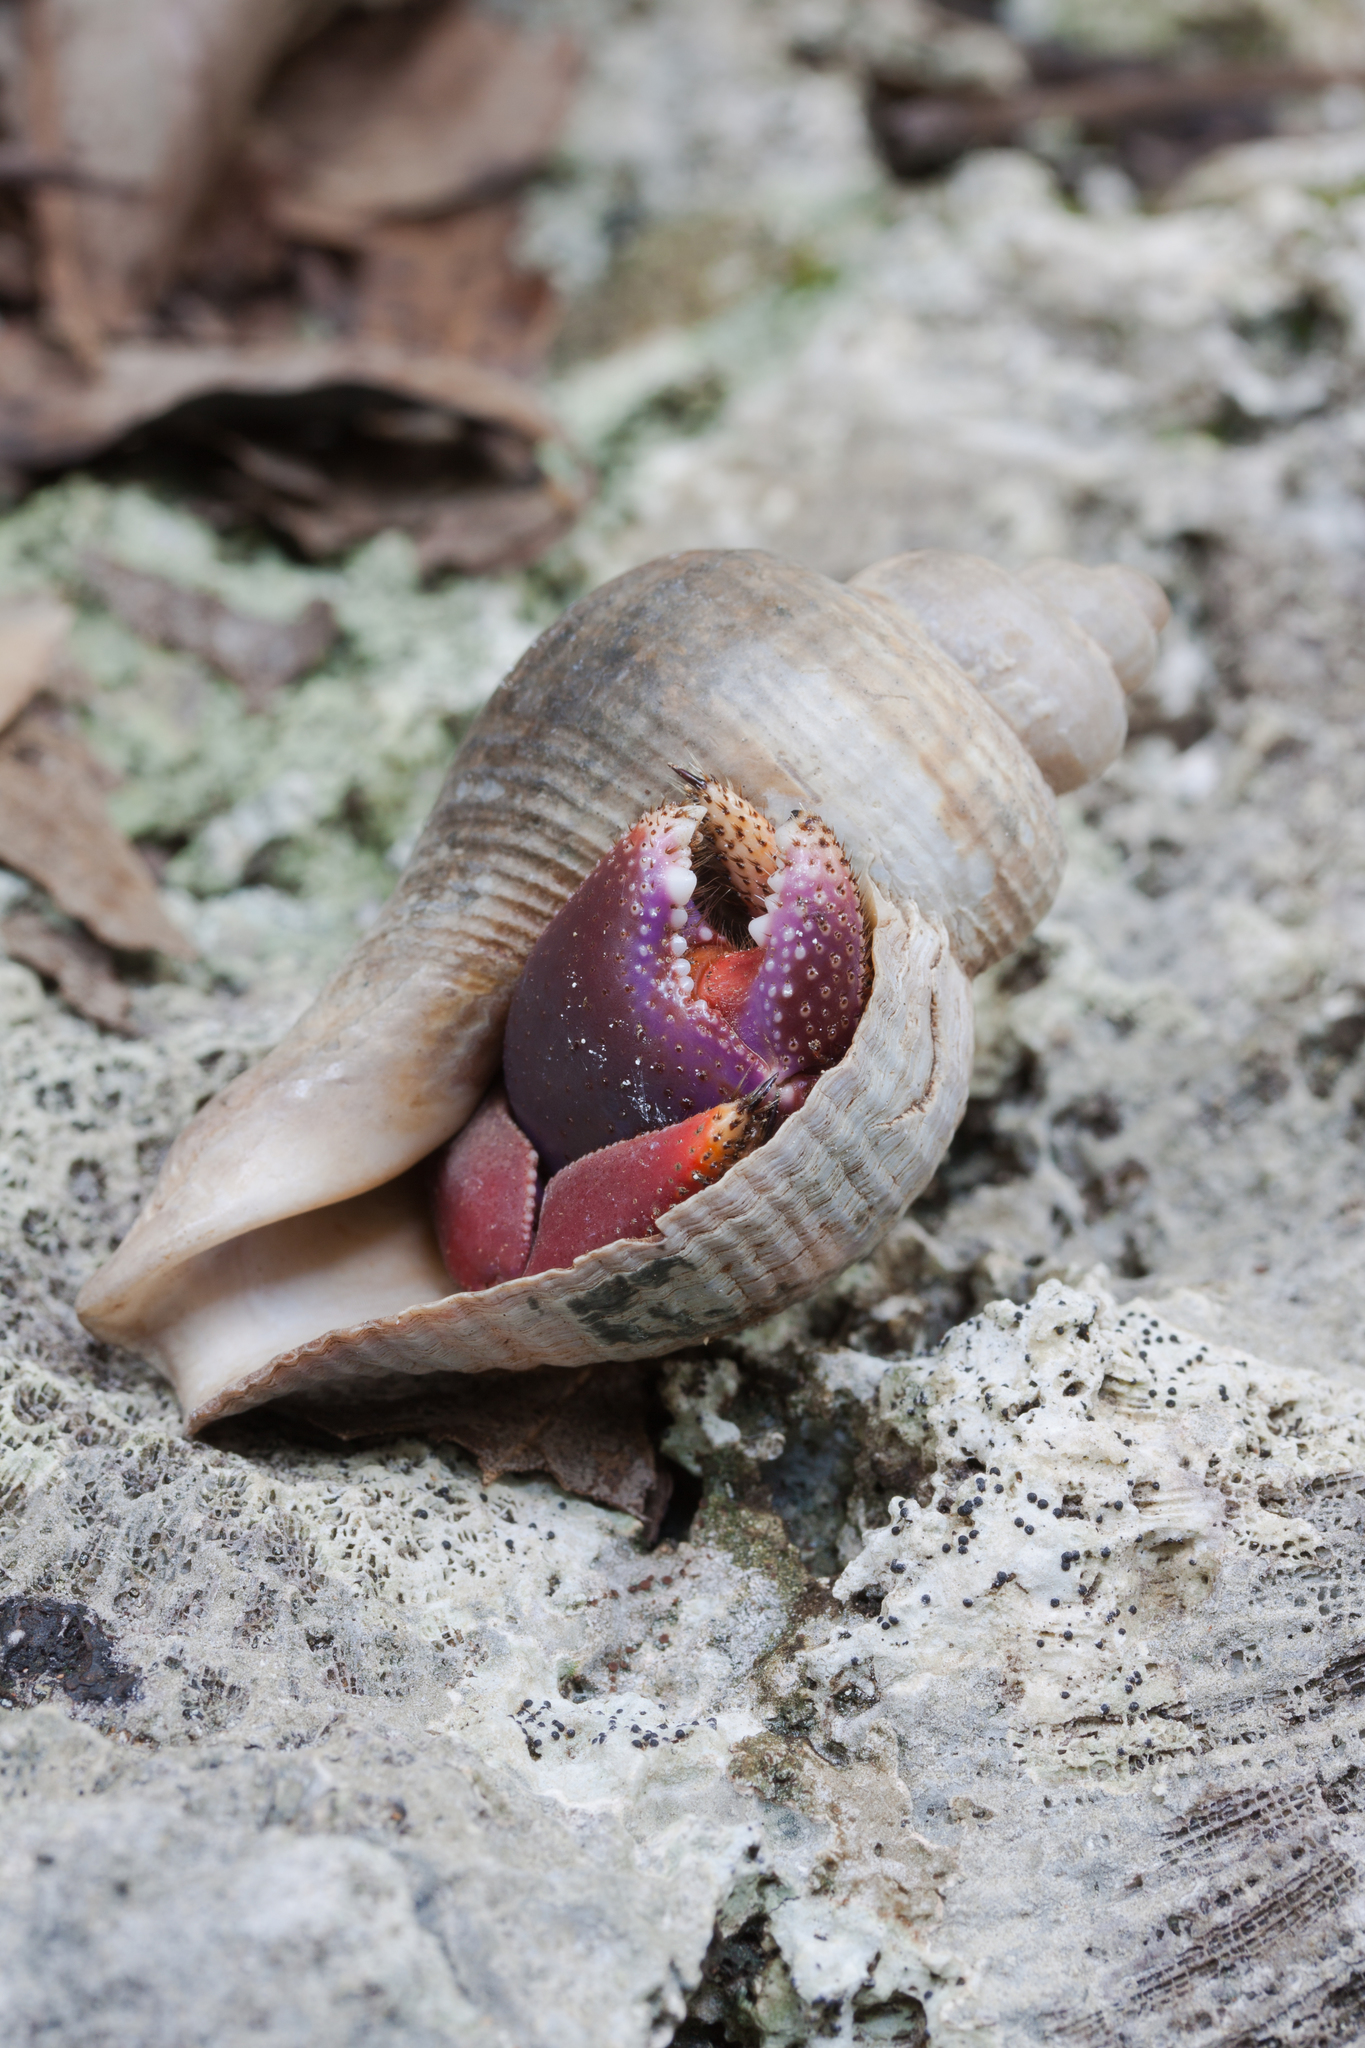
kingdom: Animalia
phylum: Arthropoda
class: Malacostraca
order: Decapoda
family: Coenobitidae
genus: Coenobita
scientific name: Coenobita clypeatus
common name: Caribbean hermit crab
